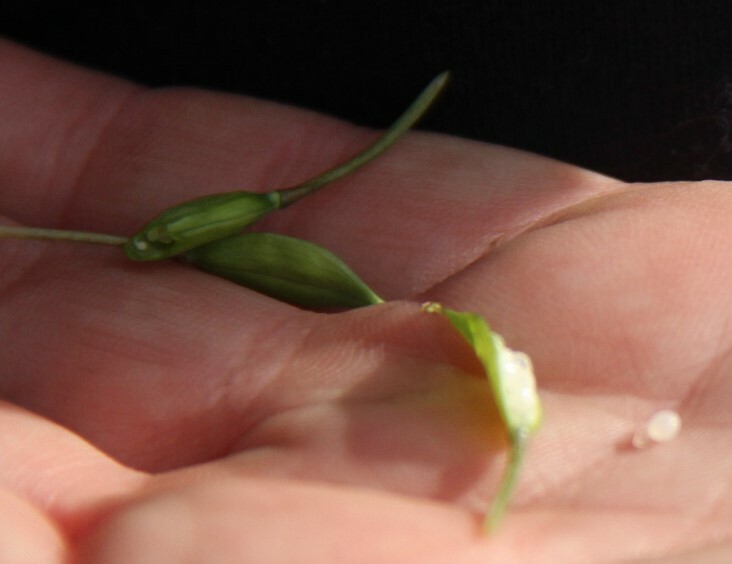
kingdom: Plantae
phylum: Tracheophyta
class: Magnoliopsida
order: Ranunculales
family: Papaveraceae
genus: Corydalis
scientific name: Corydalis solida
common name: Bird-in-a-bush
